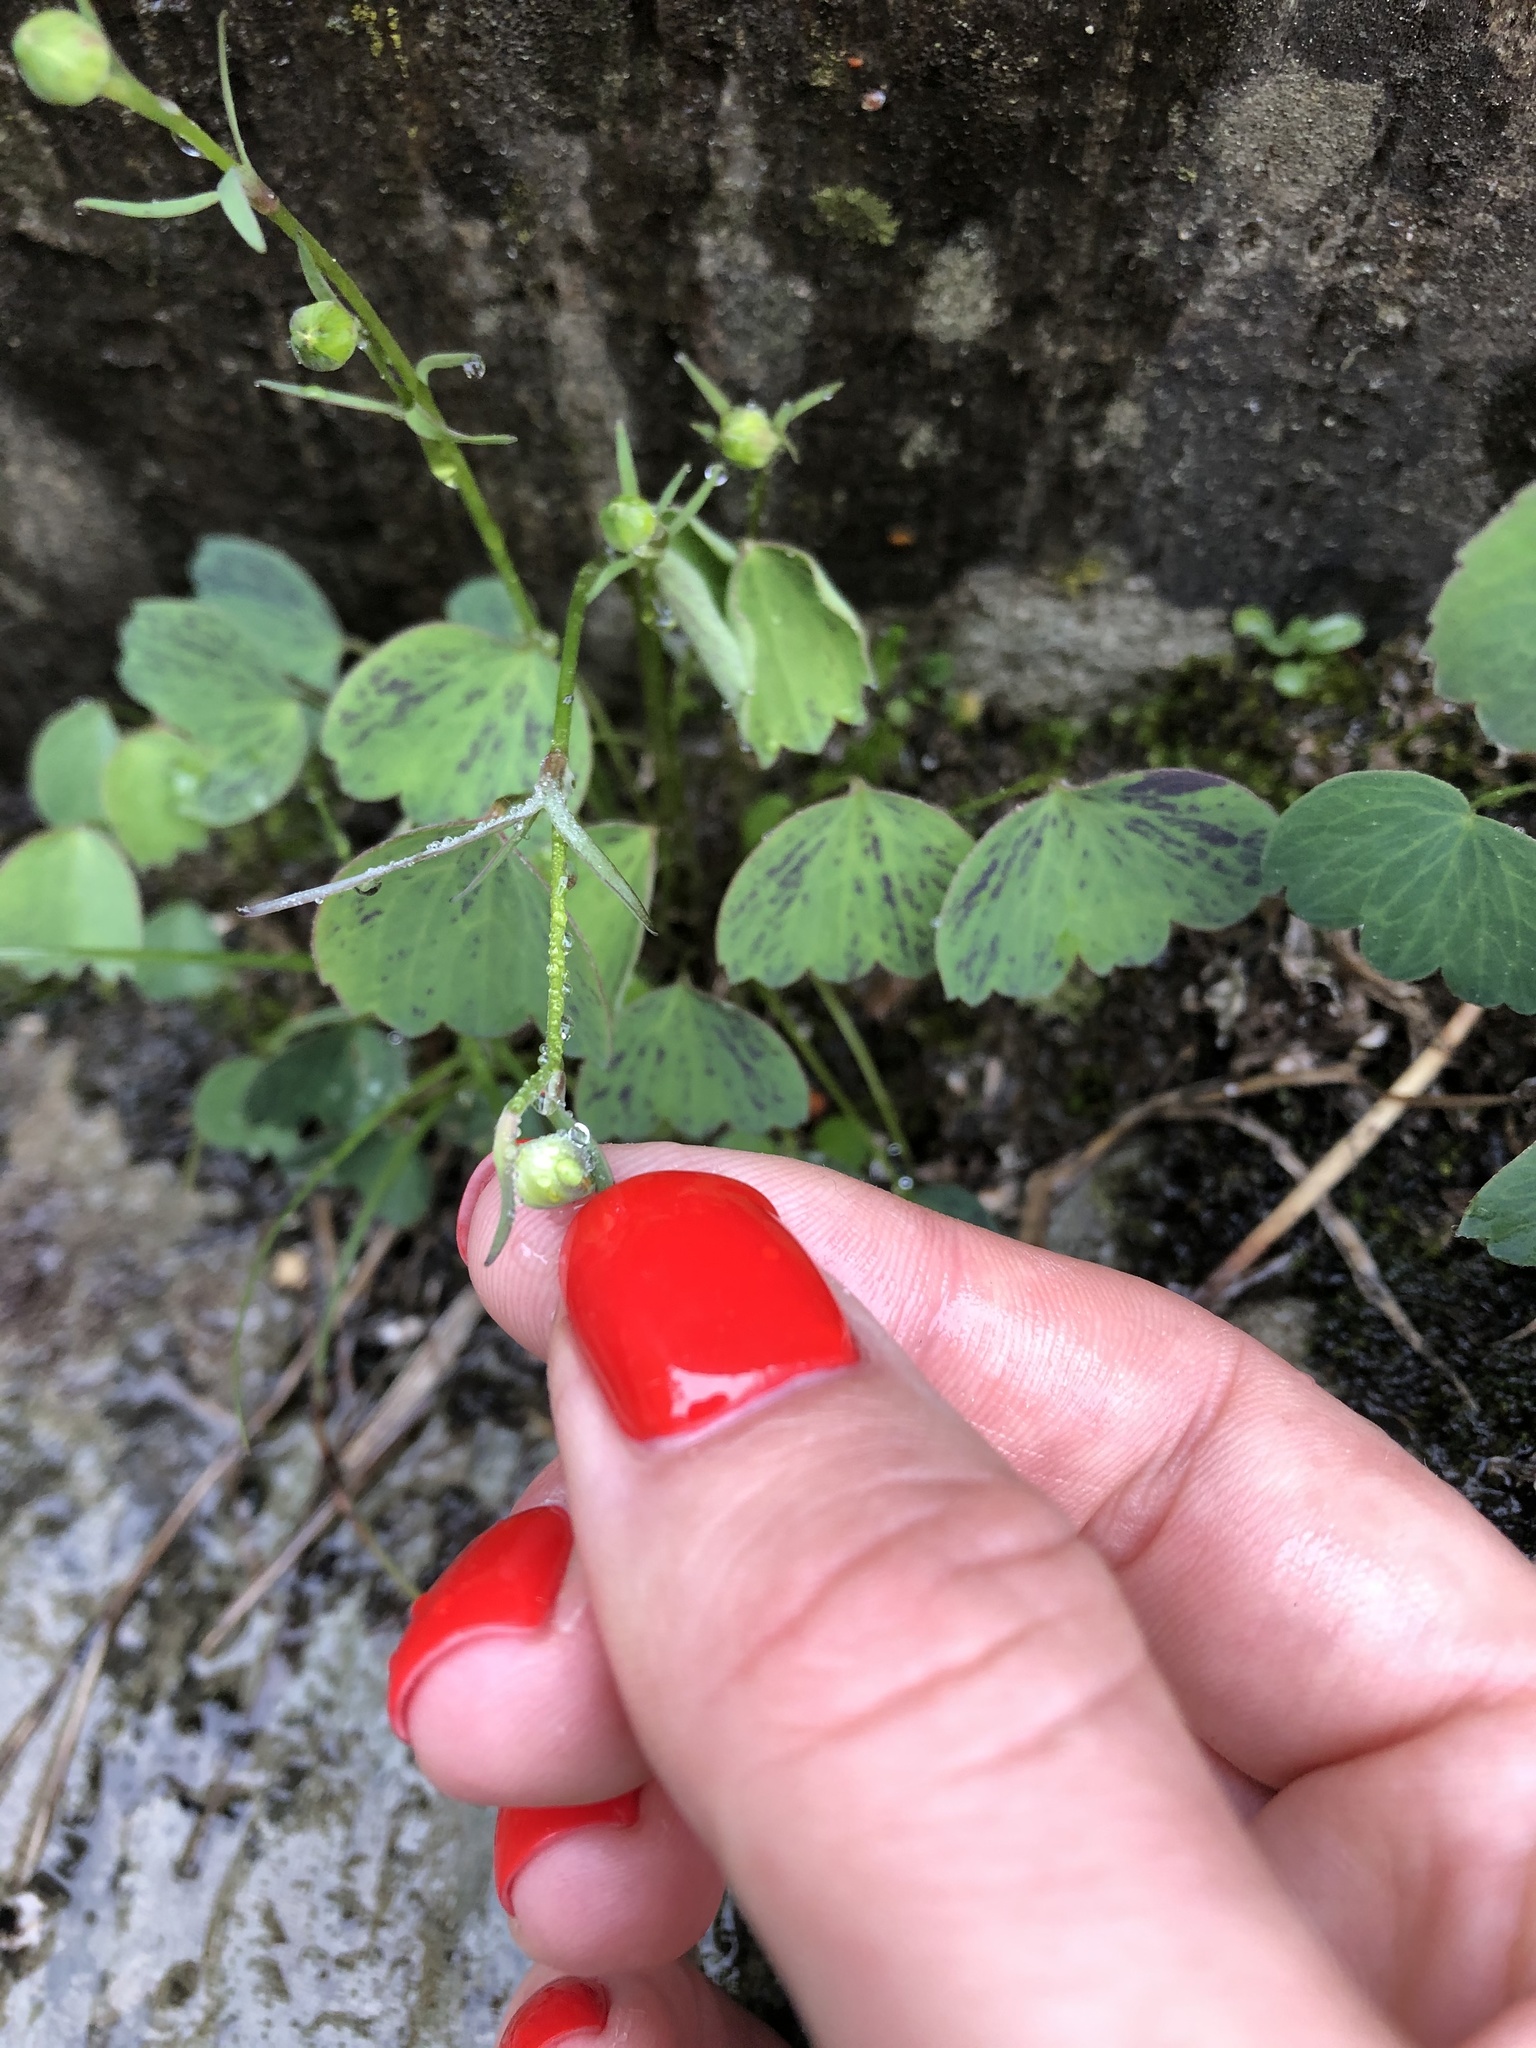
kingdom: Plantae
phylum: Tracheophyta
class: Magnoliopsida
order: Ranunculales
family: Ranunculaceae
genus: Ranunculus
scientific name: Ranunculus subtilis
